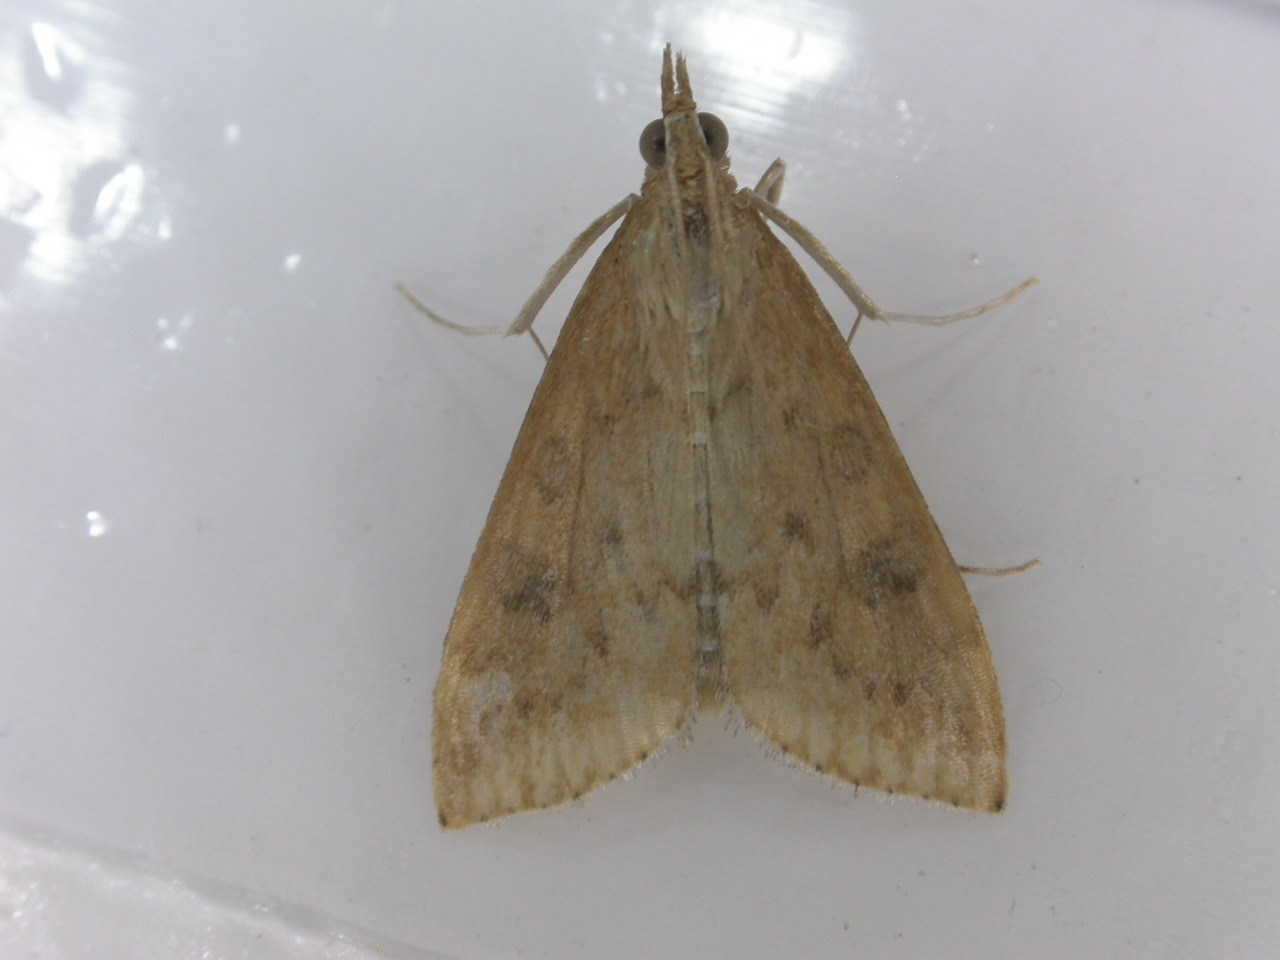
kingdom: Animalia
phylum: Arthropoda
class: Insecta
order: Lepidoptera
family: Crambidae
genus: Udea
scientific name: Udea ferrugalis
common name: Rusty dot
